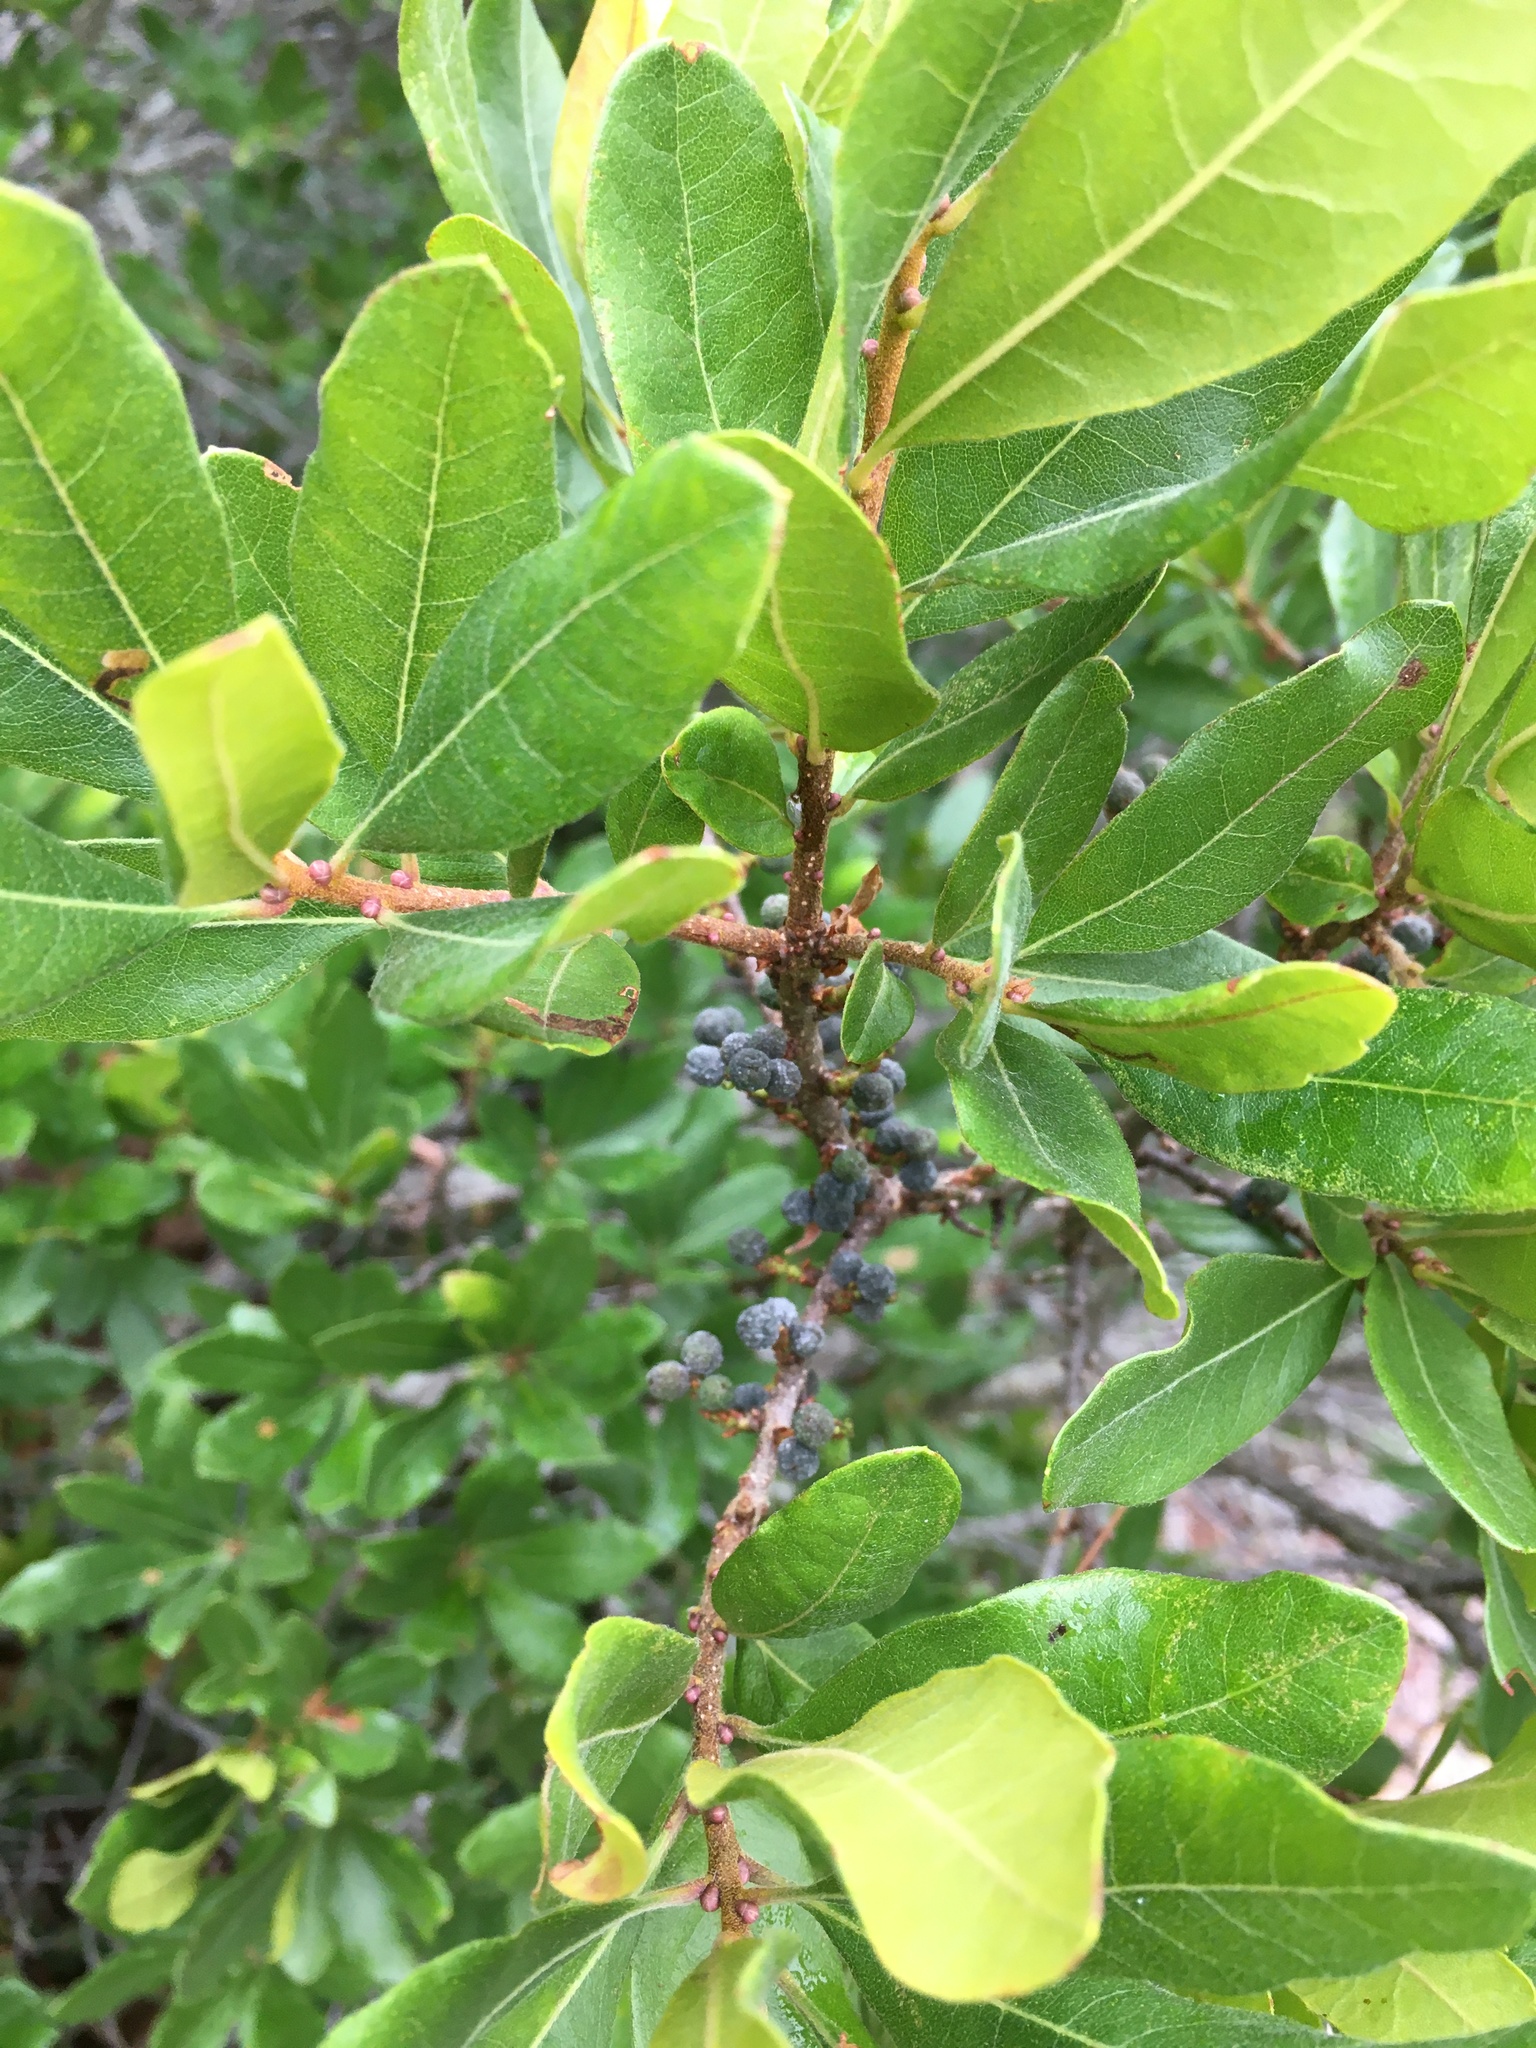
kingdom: Plantae
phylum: Tracheophyta
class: Magnoliopsida
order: Fagales
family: Myricaceae
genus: Morella
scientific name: Morella pensylvanica
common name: Northern bayberry
